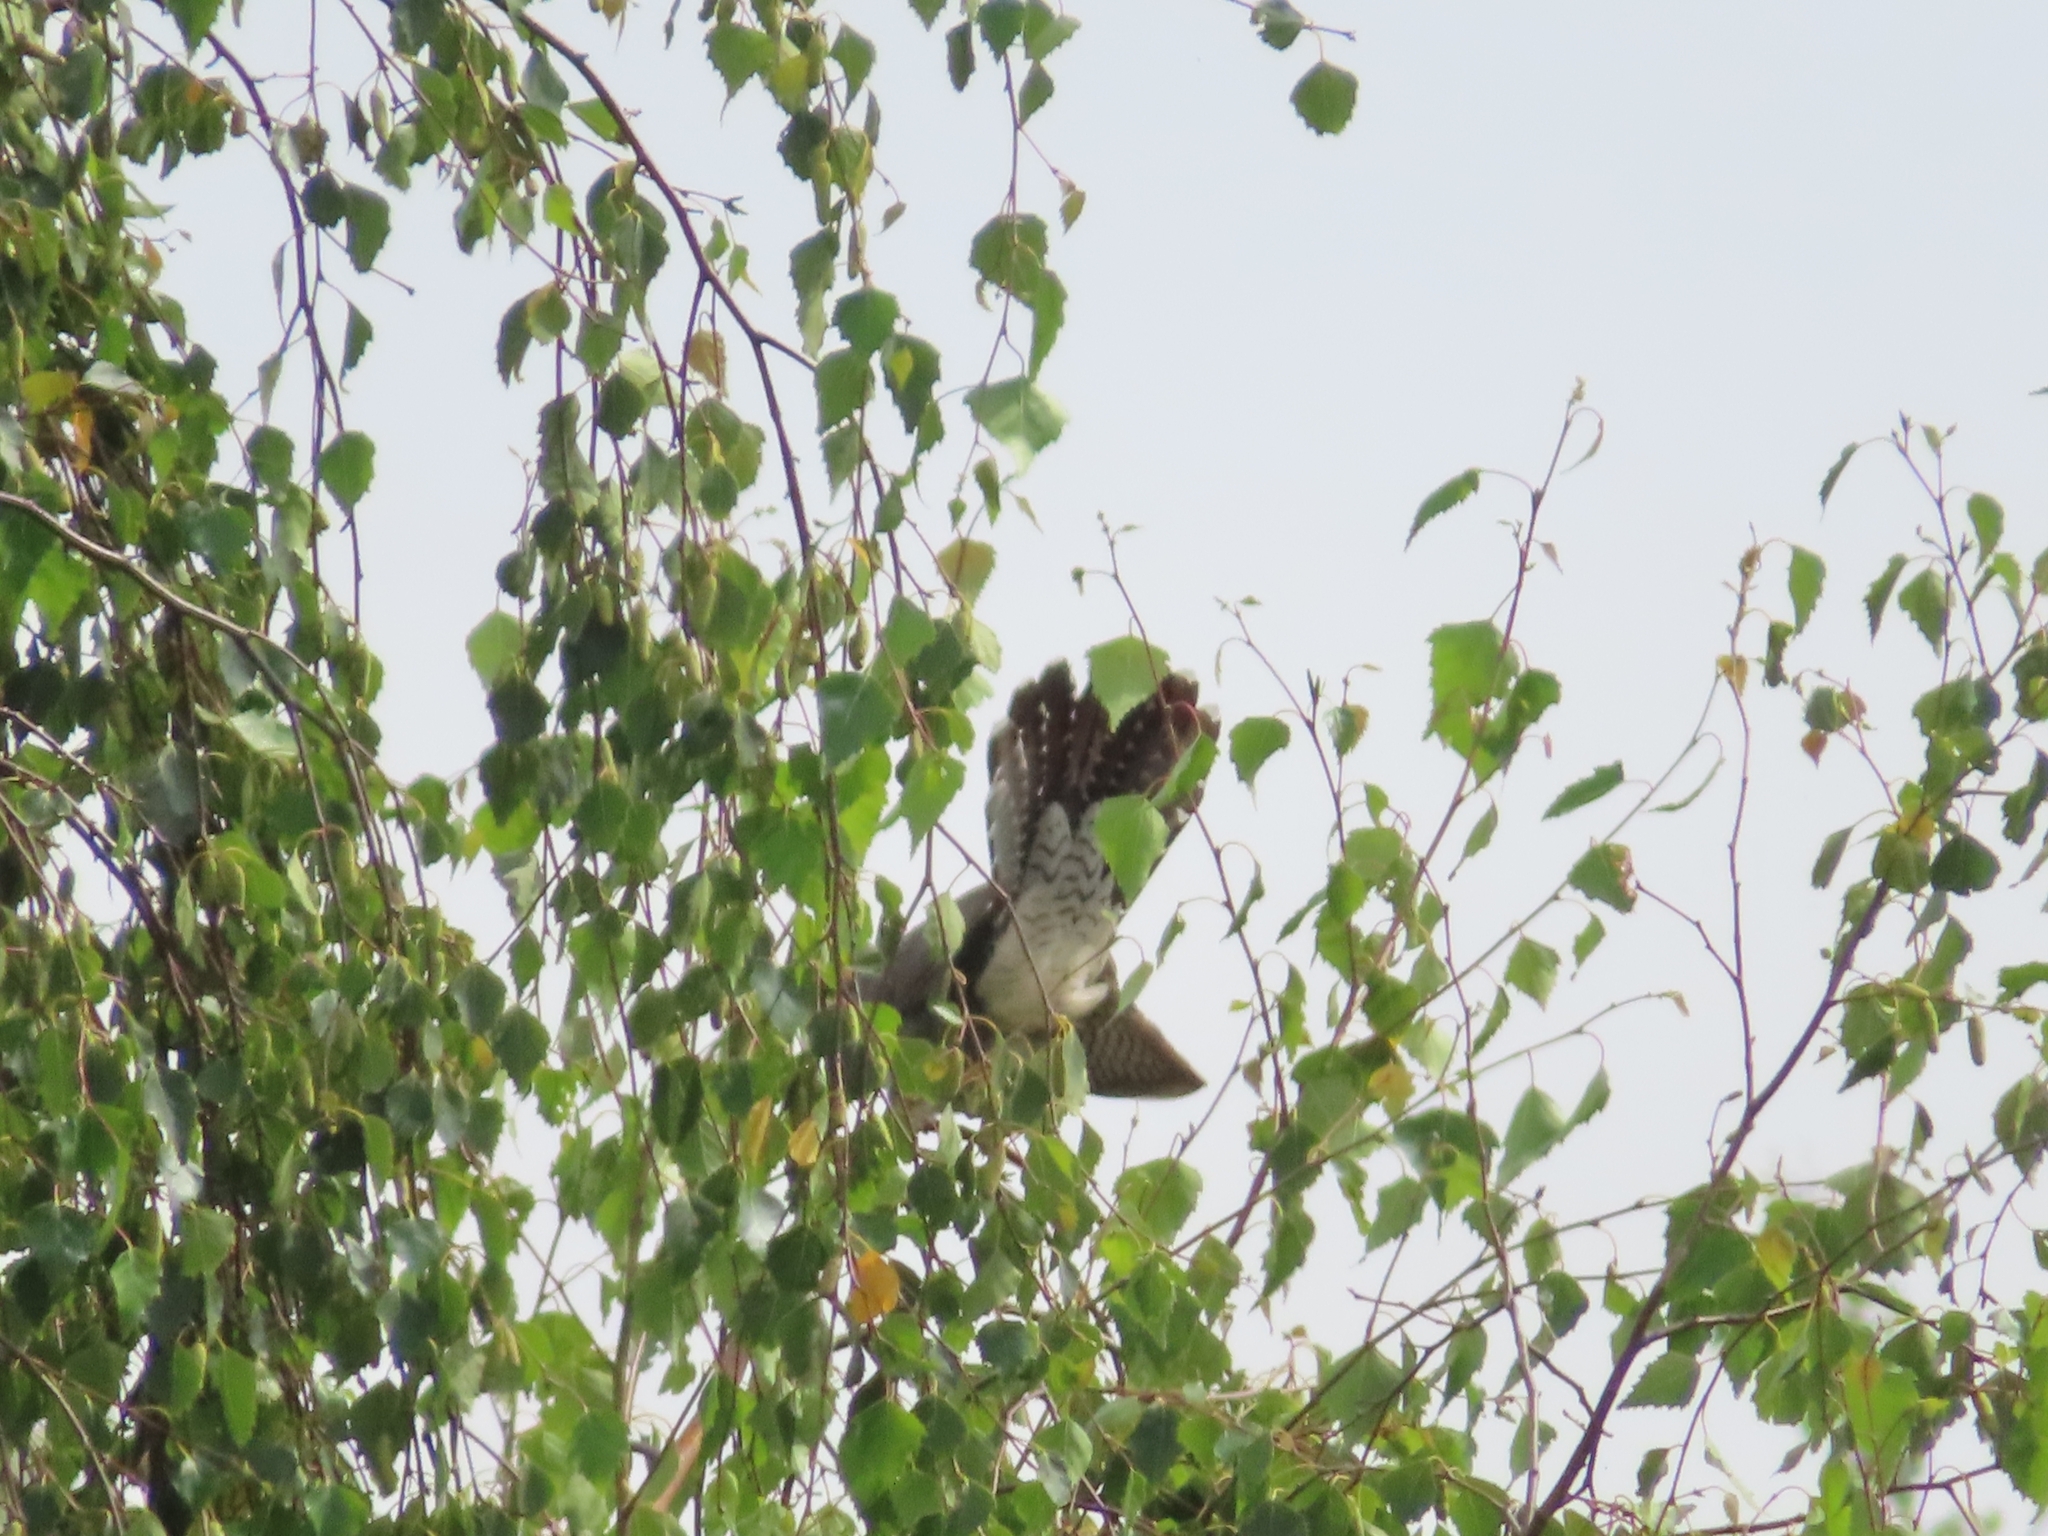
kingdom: Animalia
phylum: Chordata
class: Aves
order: Cuculiformes
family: Cuculidae
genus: Cuculus
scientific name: Cuculus canorus
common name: Common cuckoo
